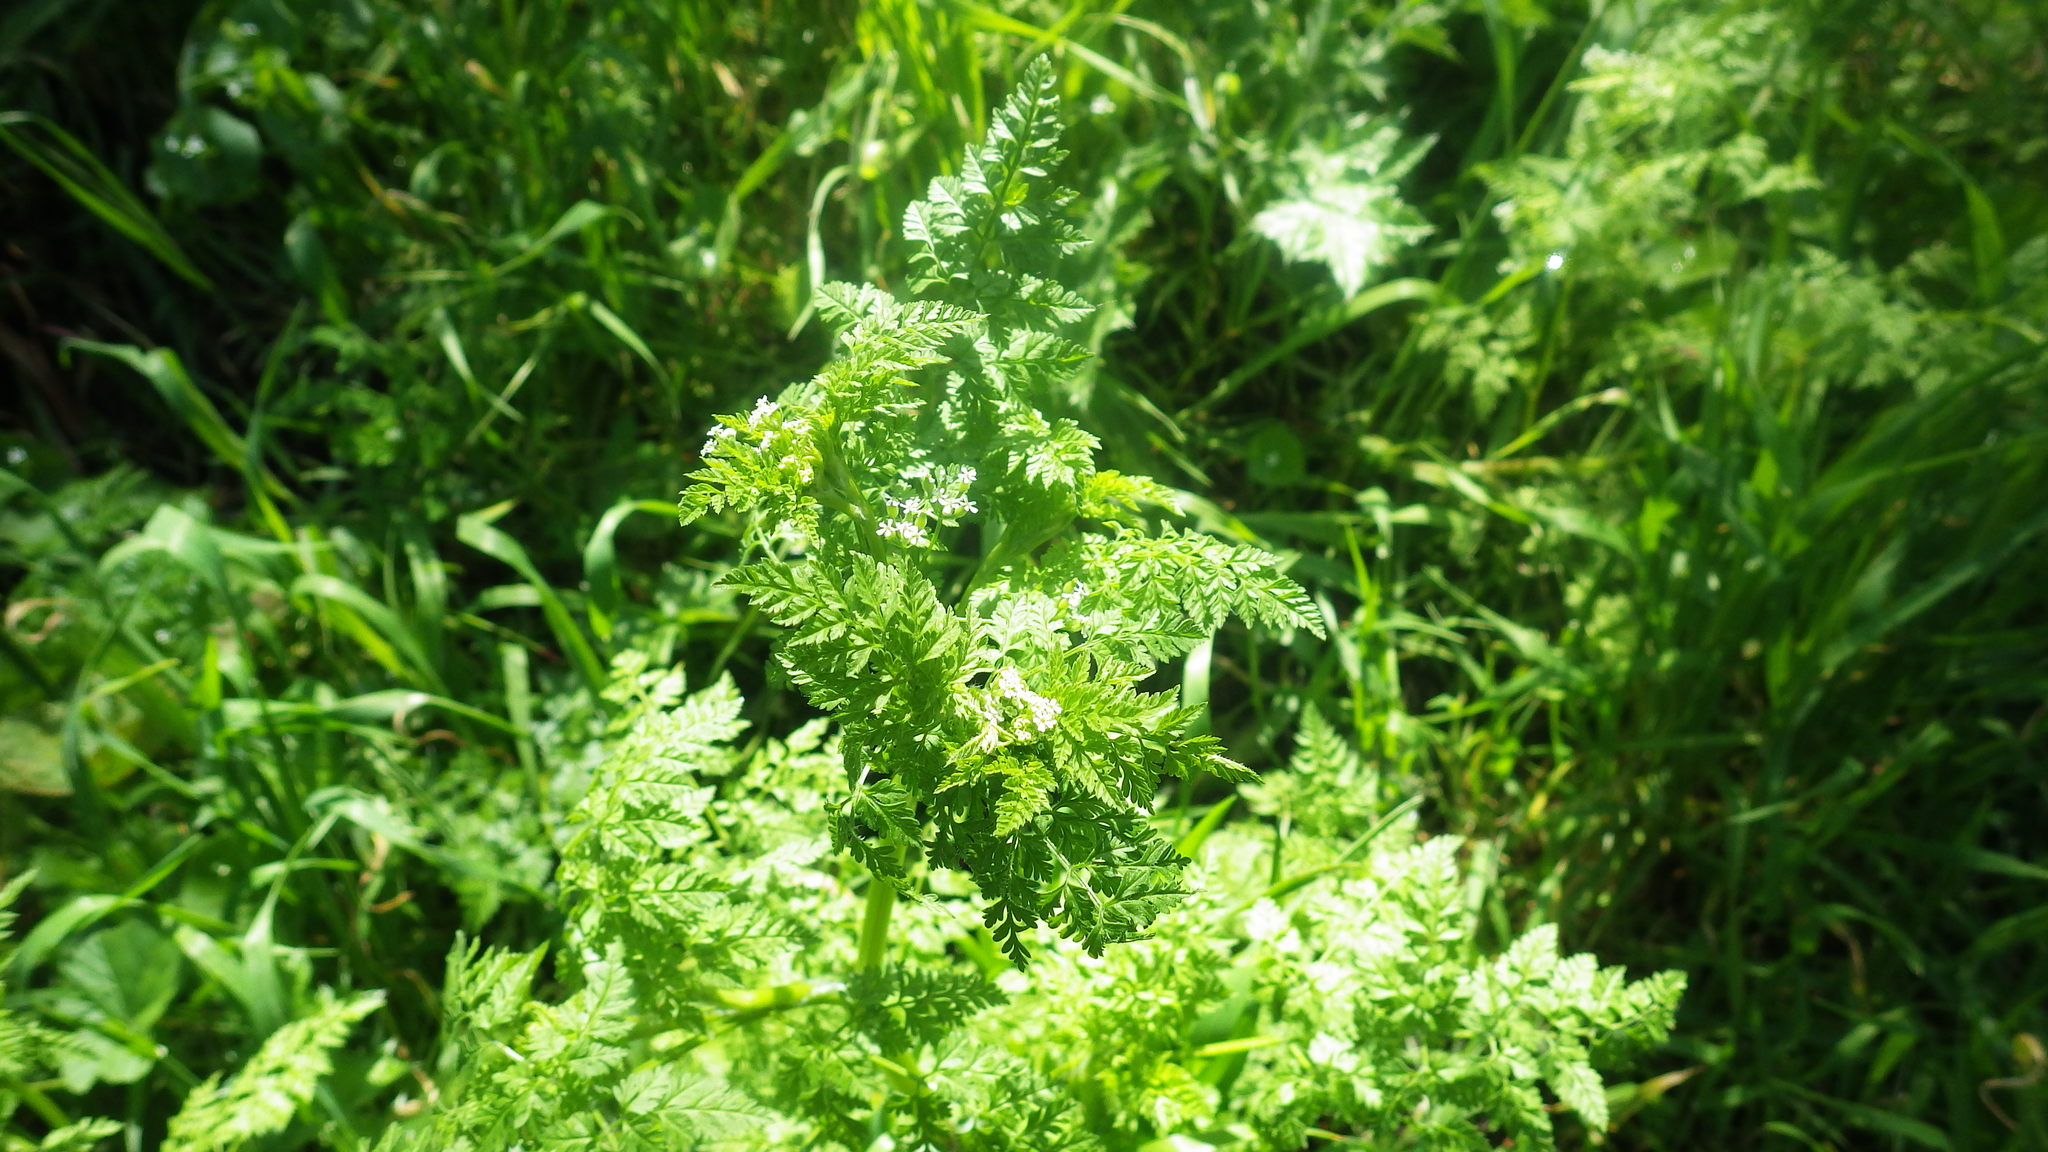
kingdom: Plantae
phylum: Tracheophyta
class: Magnoliopsida
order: Apiales
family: Apiaceae
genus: Conium
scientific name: Conium maculatum
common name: Hemlock
